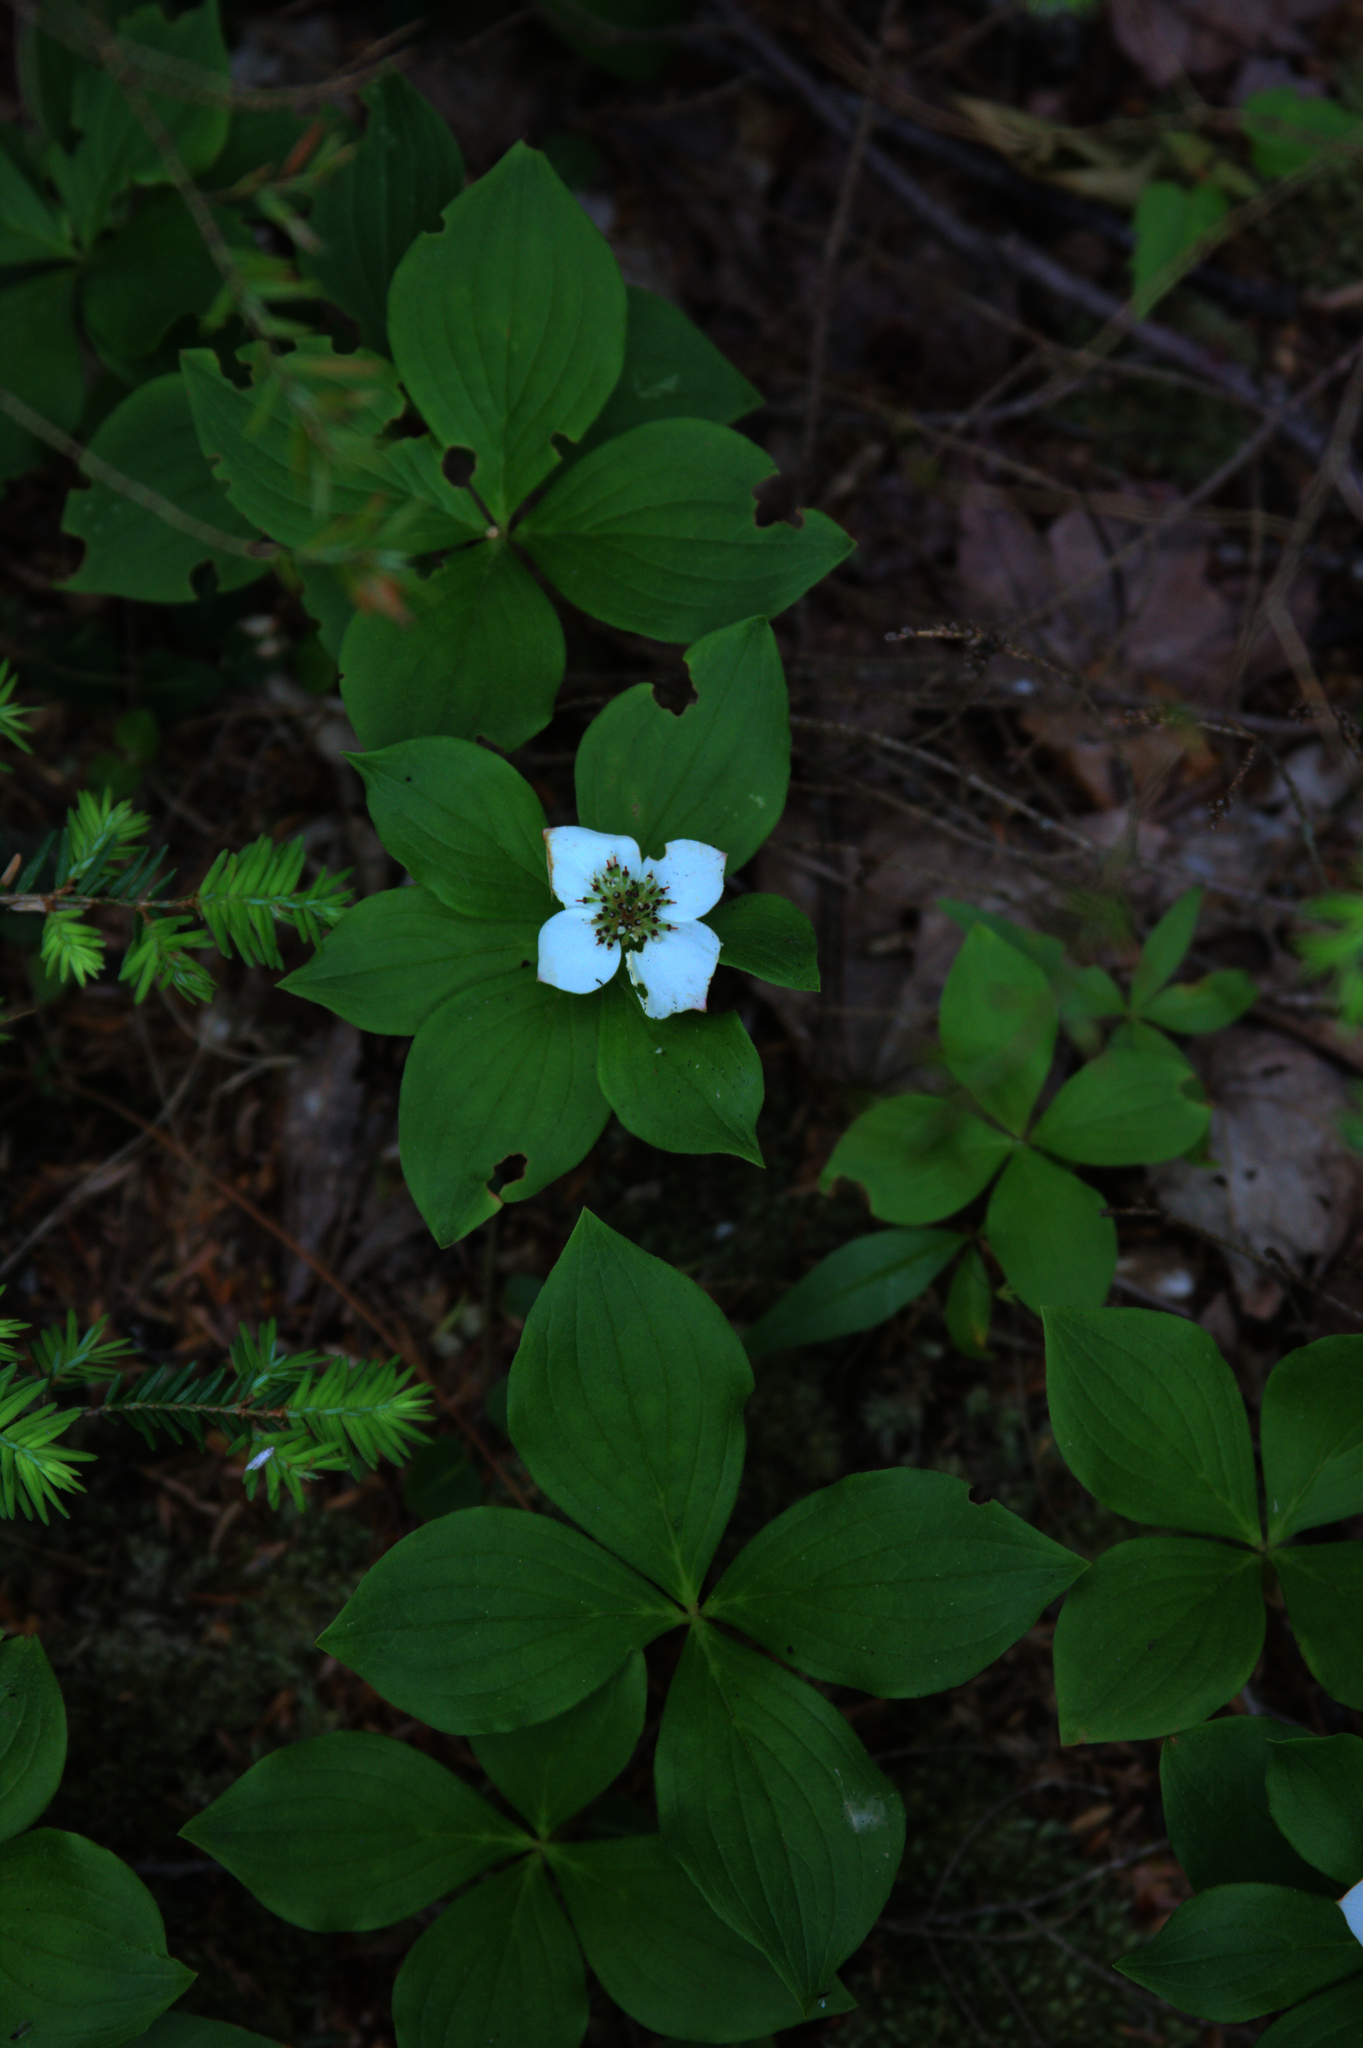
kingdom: Plantae
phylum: Tracheophyta
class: Magnoliopsida
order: Cornales
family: Cornaceae
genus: Cornus
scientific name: Cornus canadensis
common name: Creeping dogwood
